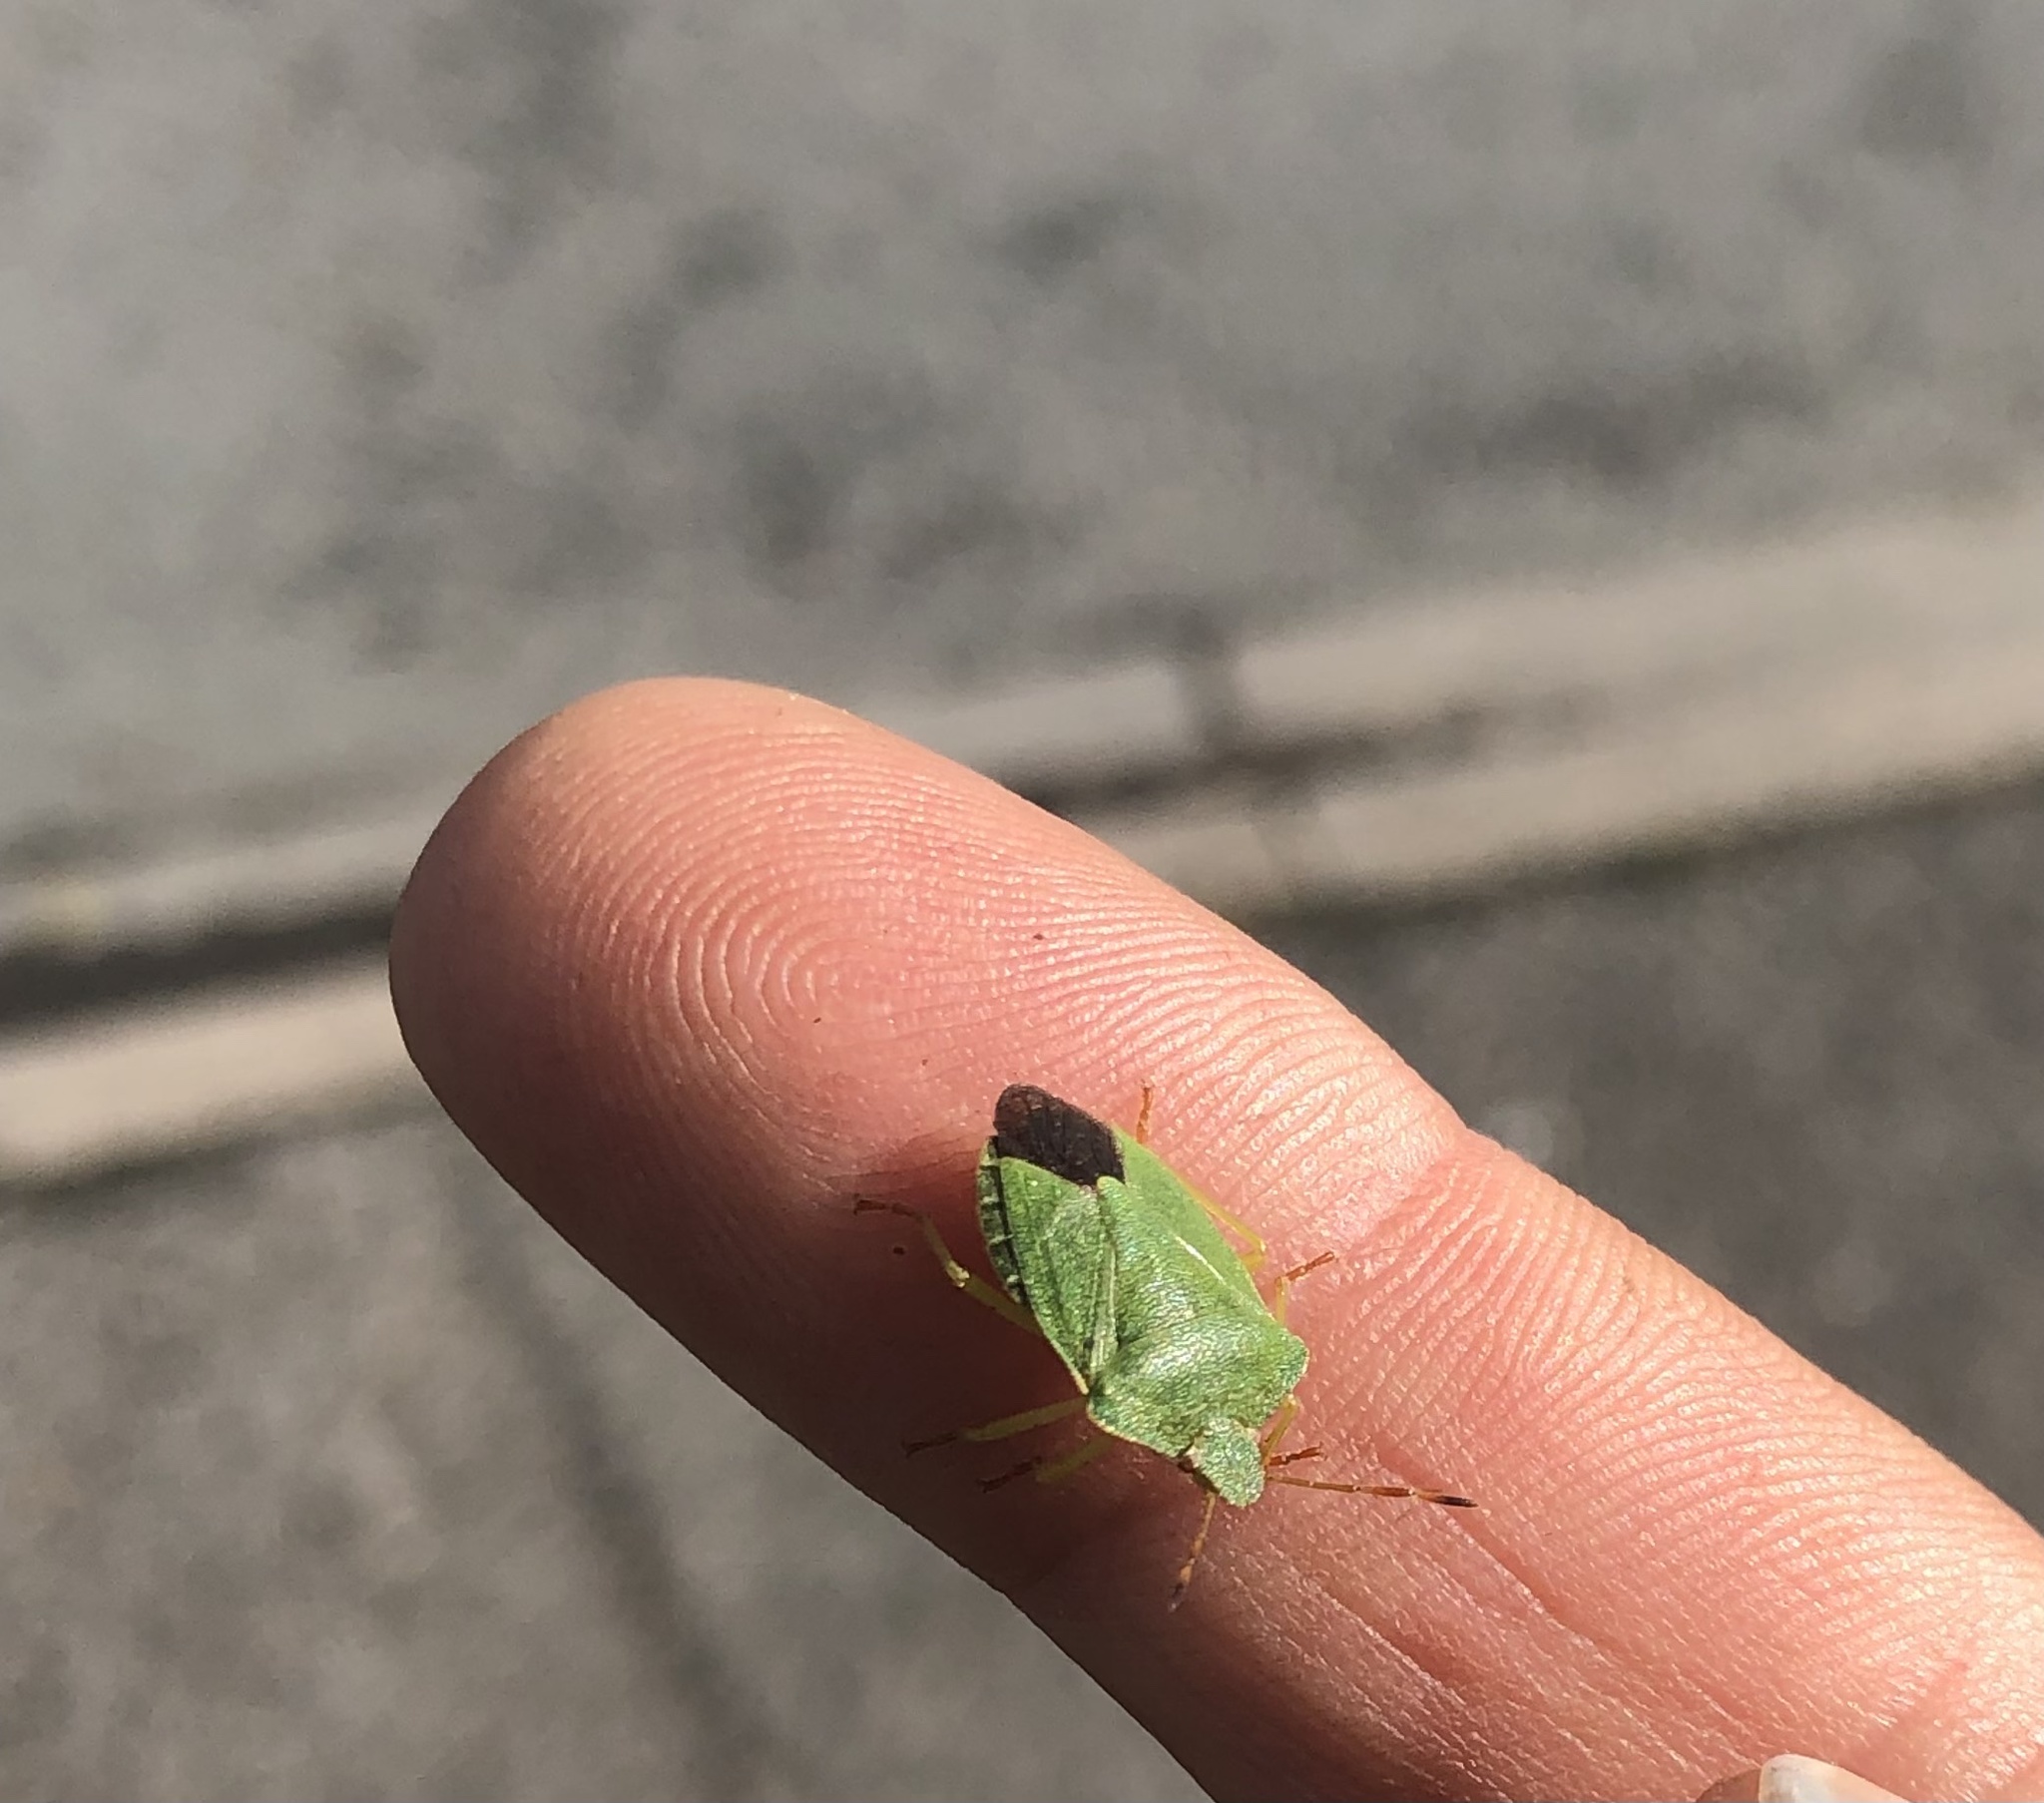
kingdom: Animalia
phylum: Arthropoda
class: Insecta
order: Hemiptera
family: Pentatomidae
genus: Palomena
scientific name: Palomena prasina
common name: Green shieldbug
